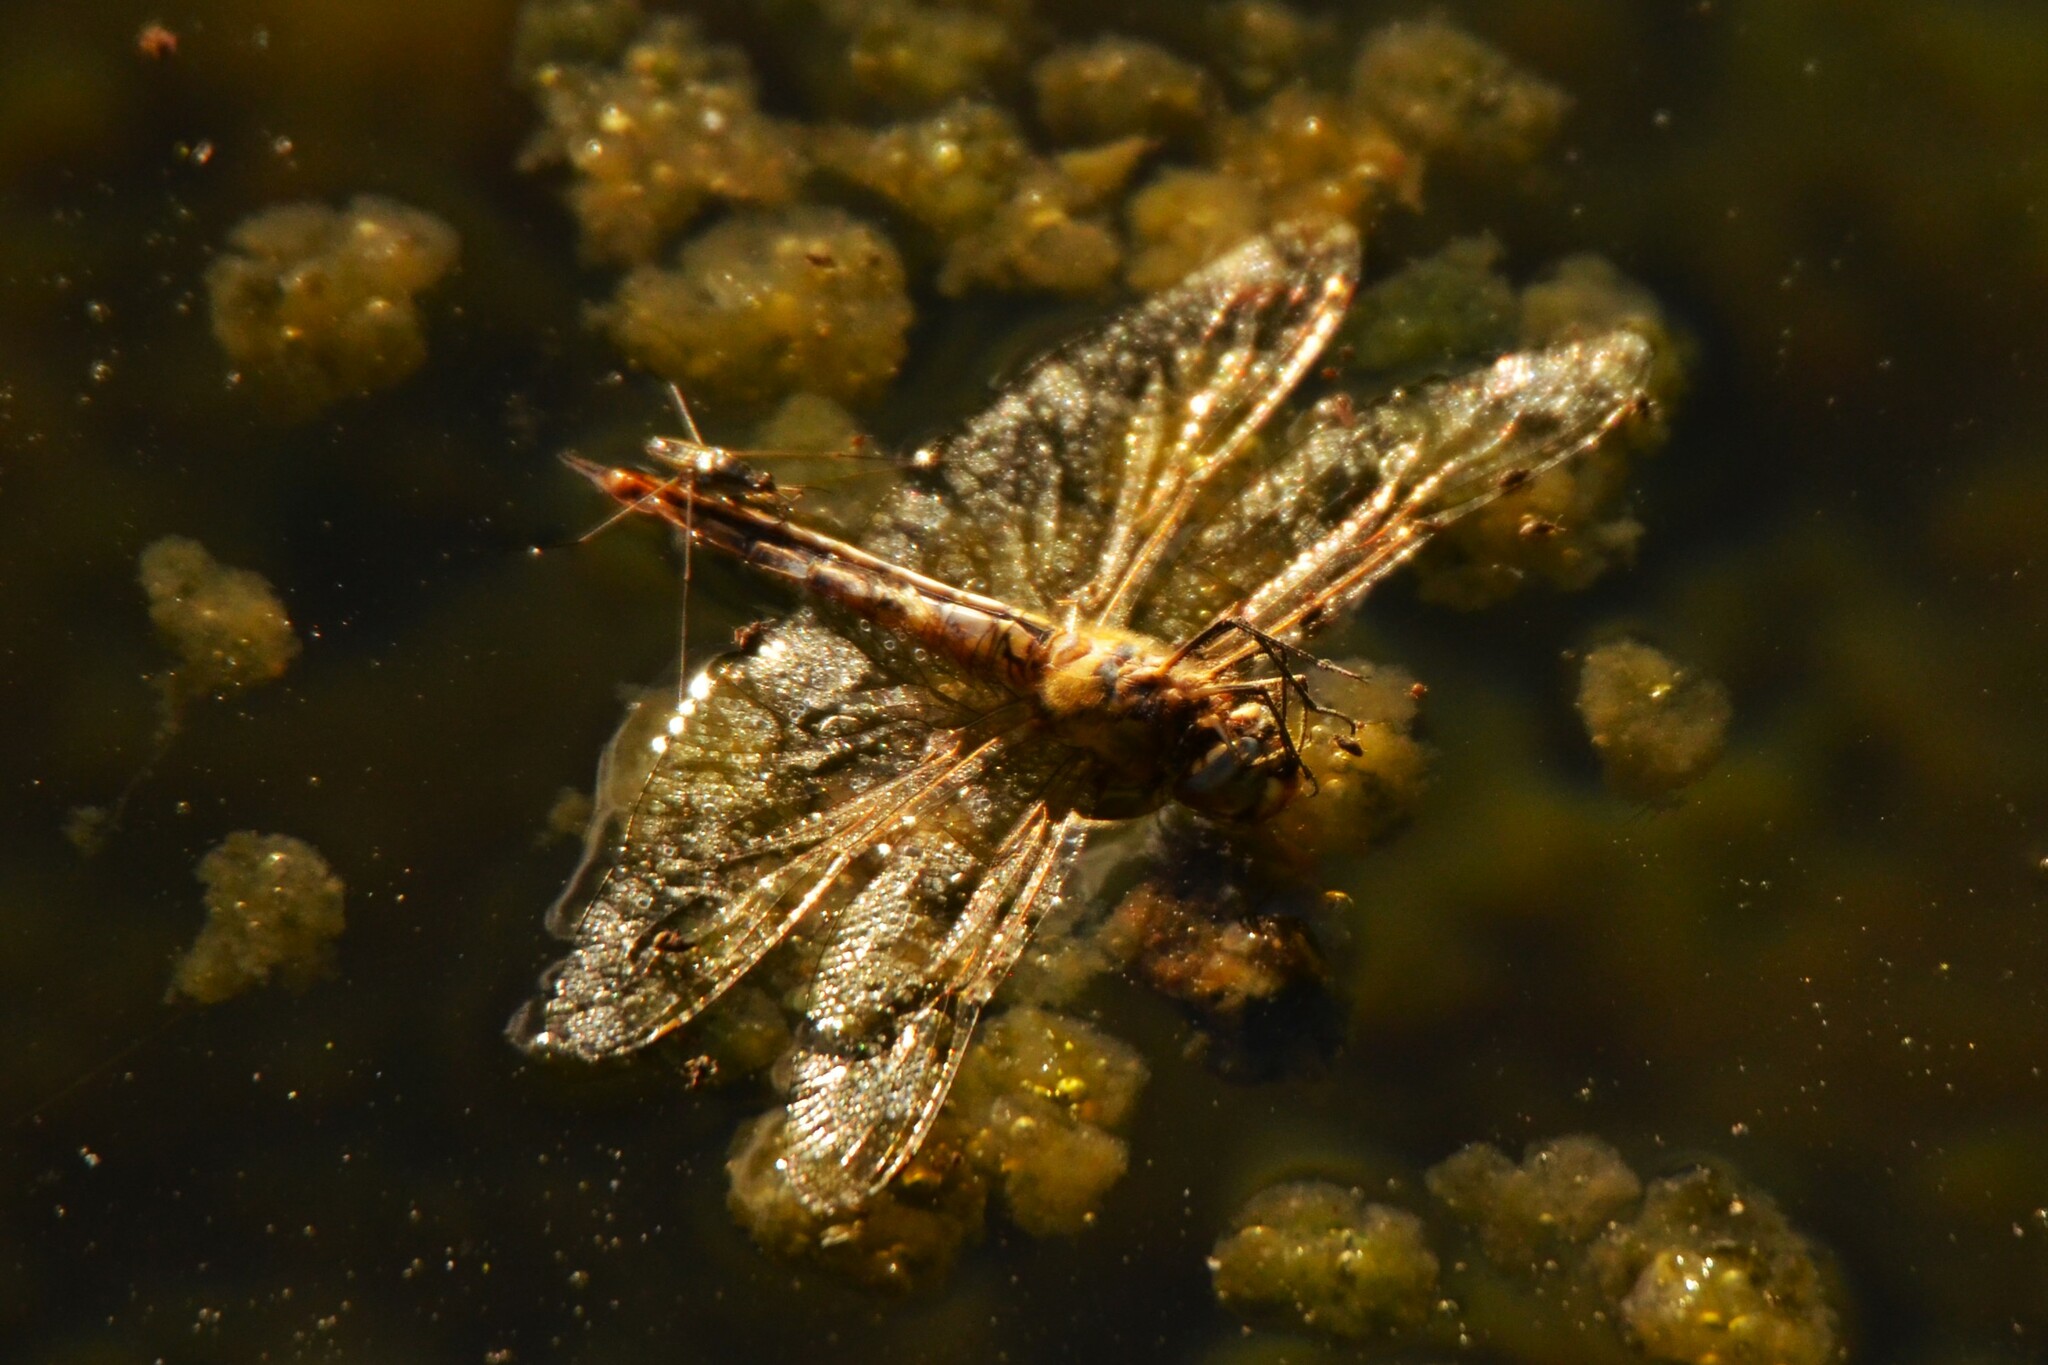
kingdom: Animalia
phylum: Arthropoda
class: Insecta
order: Hemiptera
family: Gerridae
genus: Limnogonus
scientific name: Limnogonus
